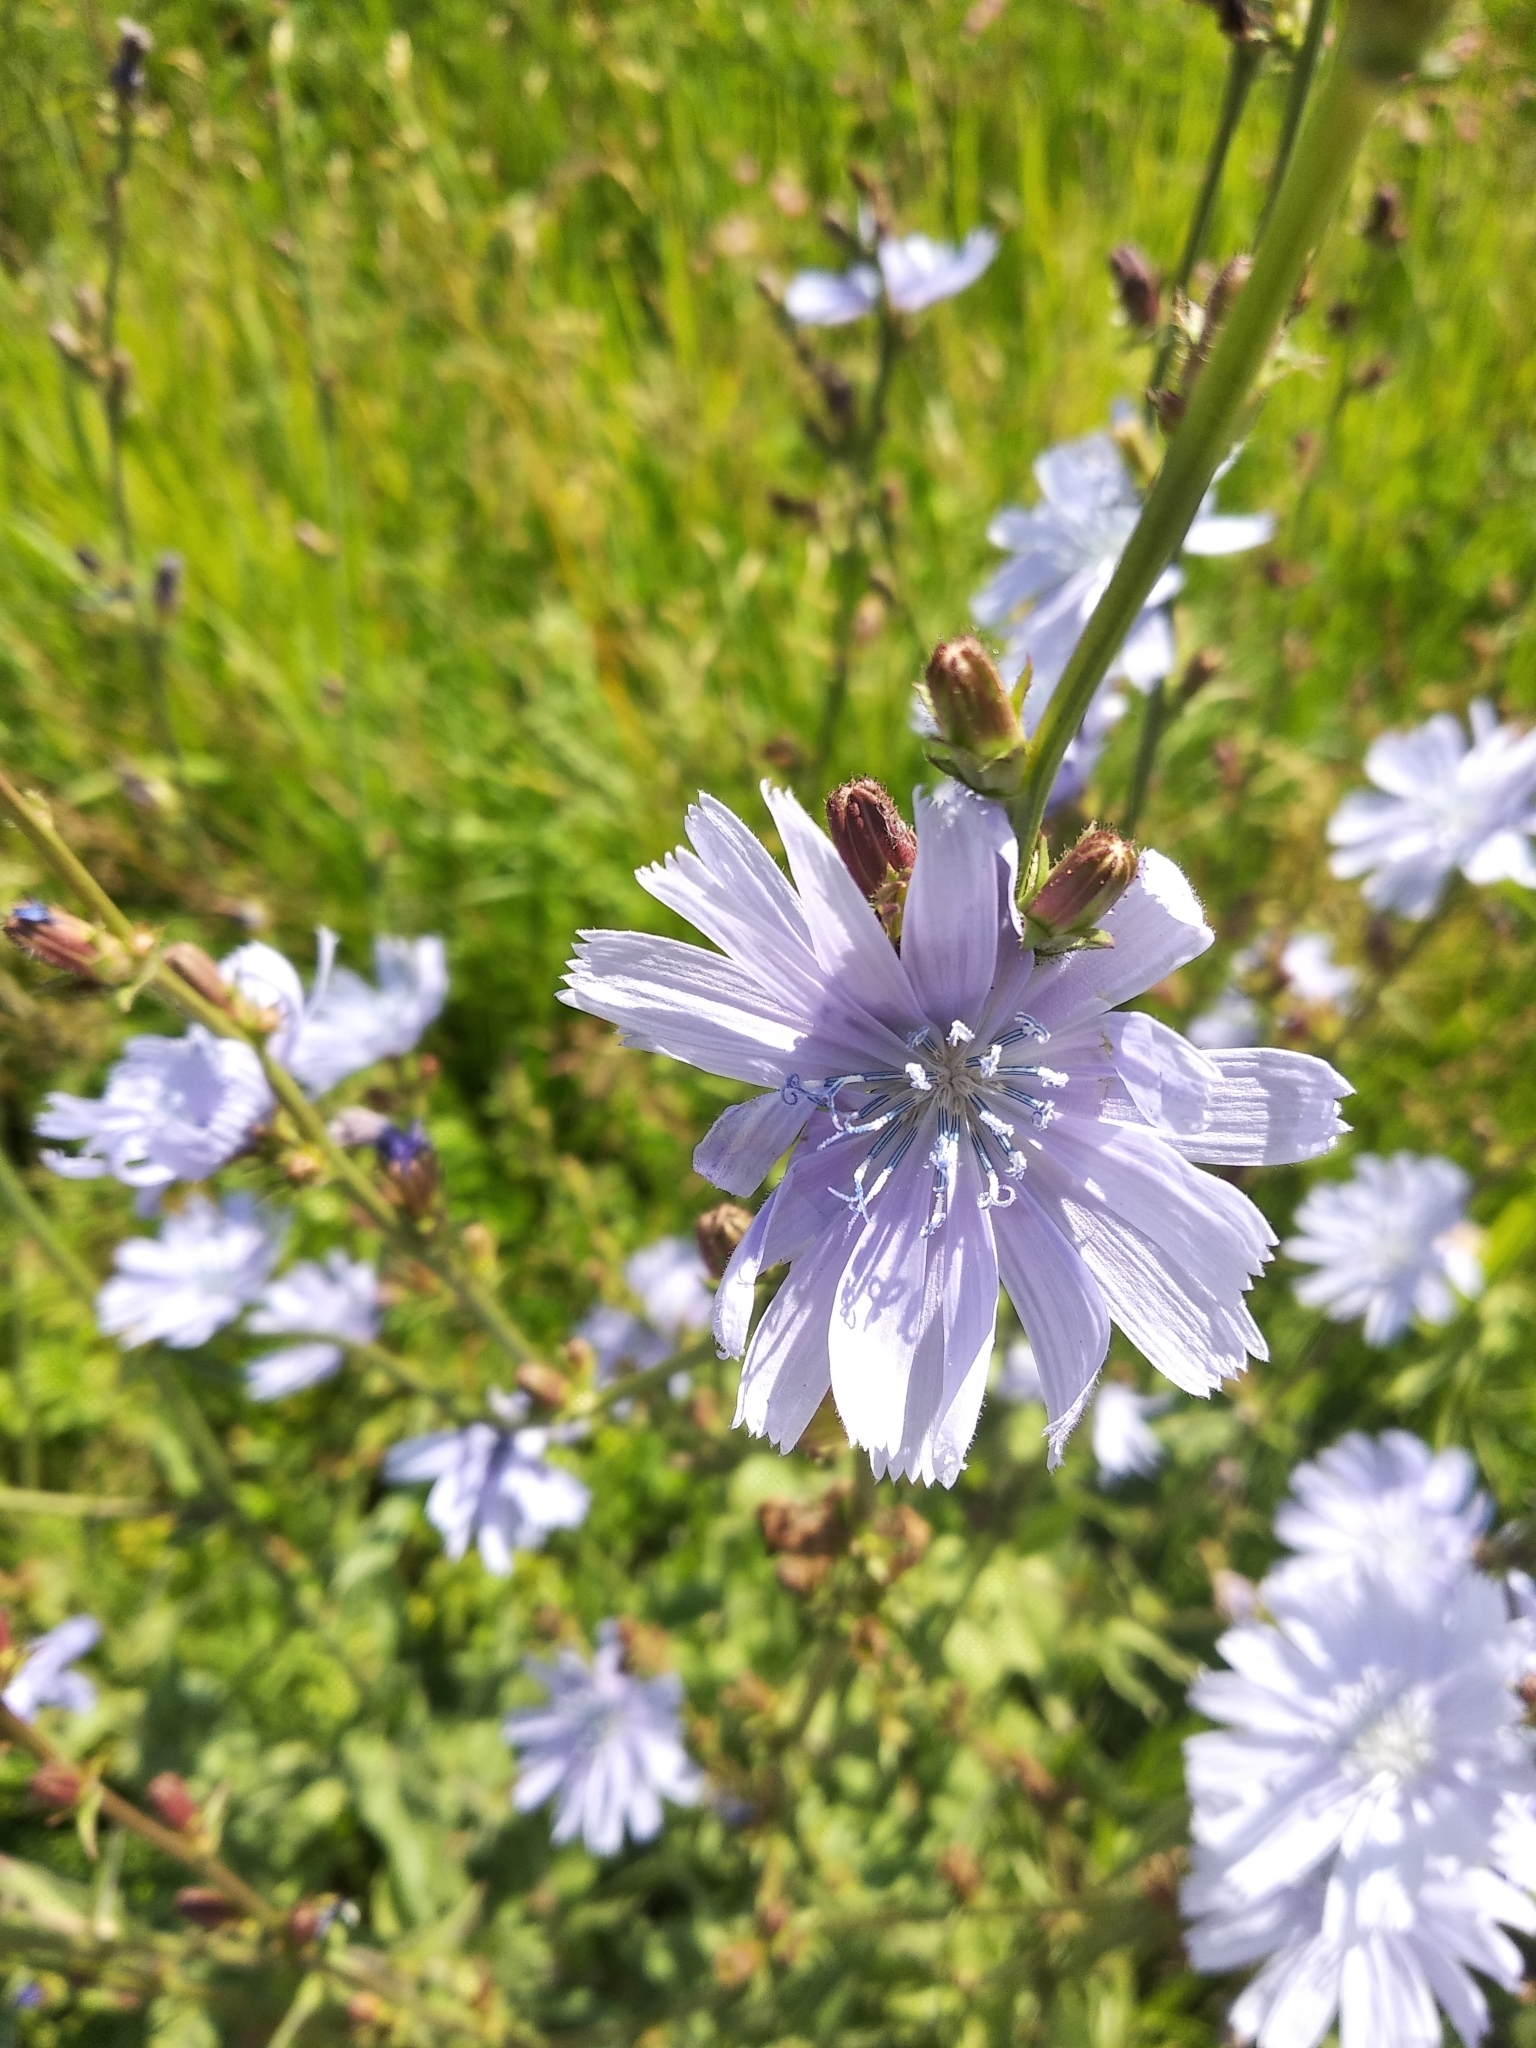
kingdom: Plantae
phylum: Tracheophyta
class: Magnoliopsida
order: Asterales
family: Asteraceae
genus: Cichorium
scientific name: Cichorium intybus
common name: Chicory
